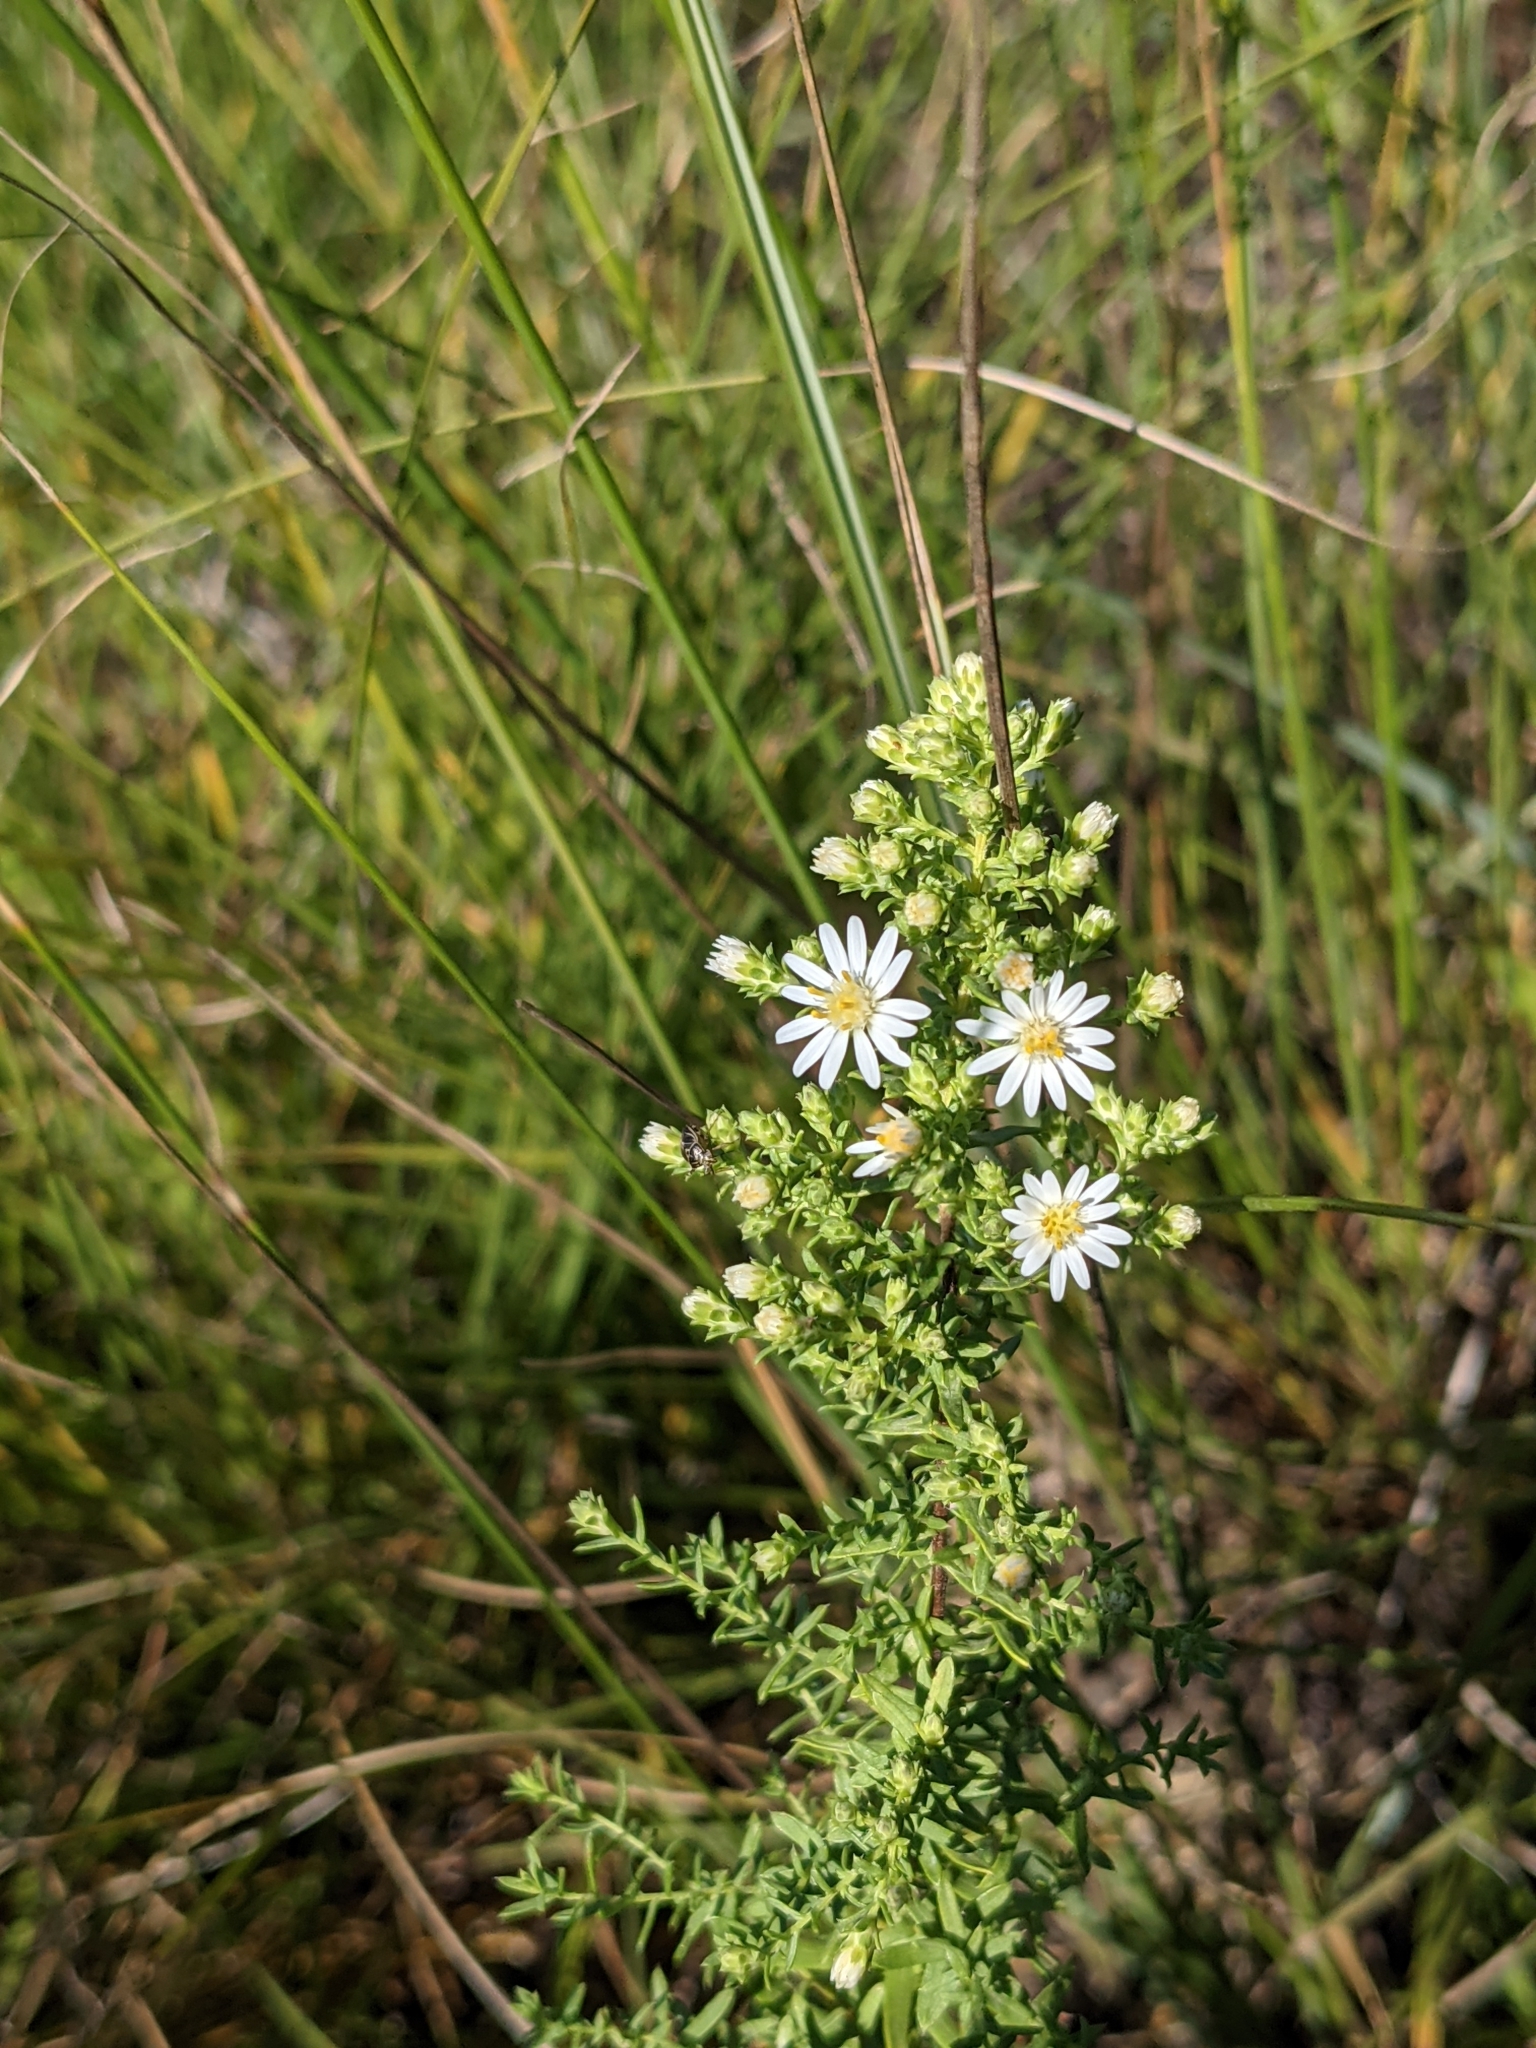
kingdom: Plantae
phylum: Tracheophyta
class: Magnoliopsida
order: Asterales
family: Asteraceae
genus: Symphyotrichum
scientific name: Symphyotrichum ericoides
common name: Heath aster
